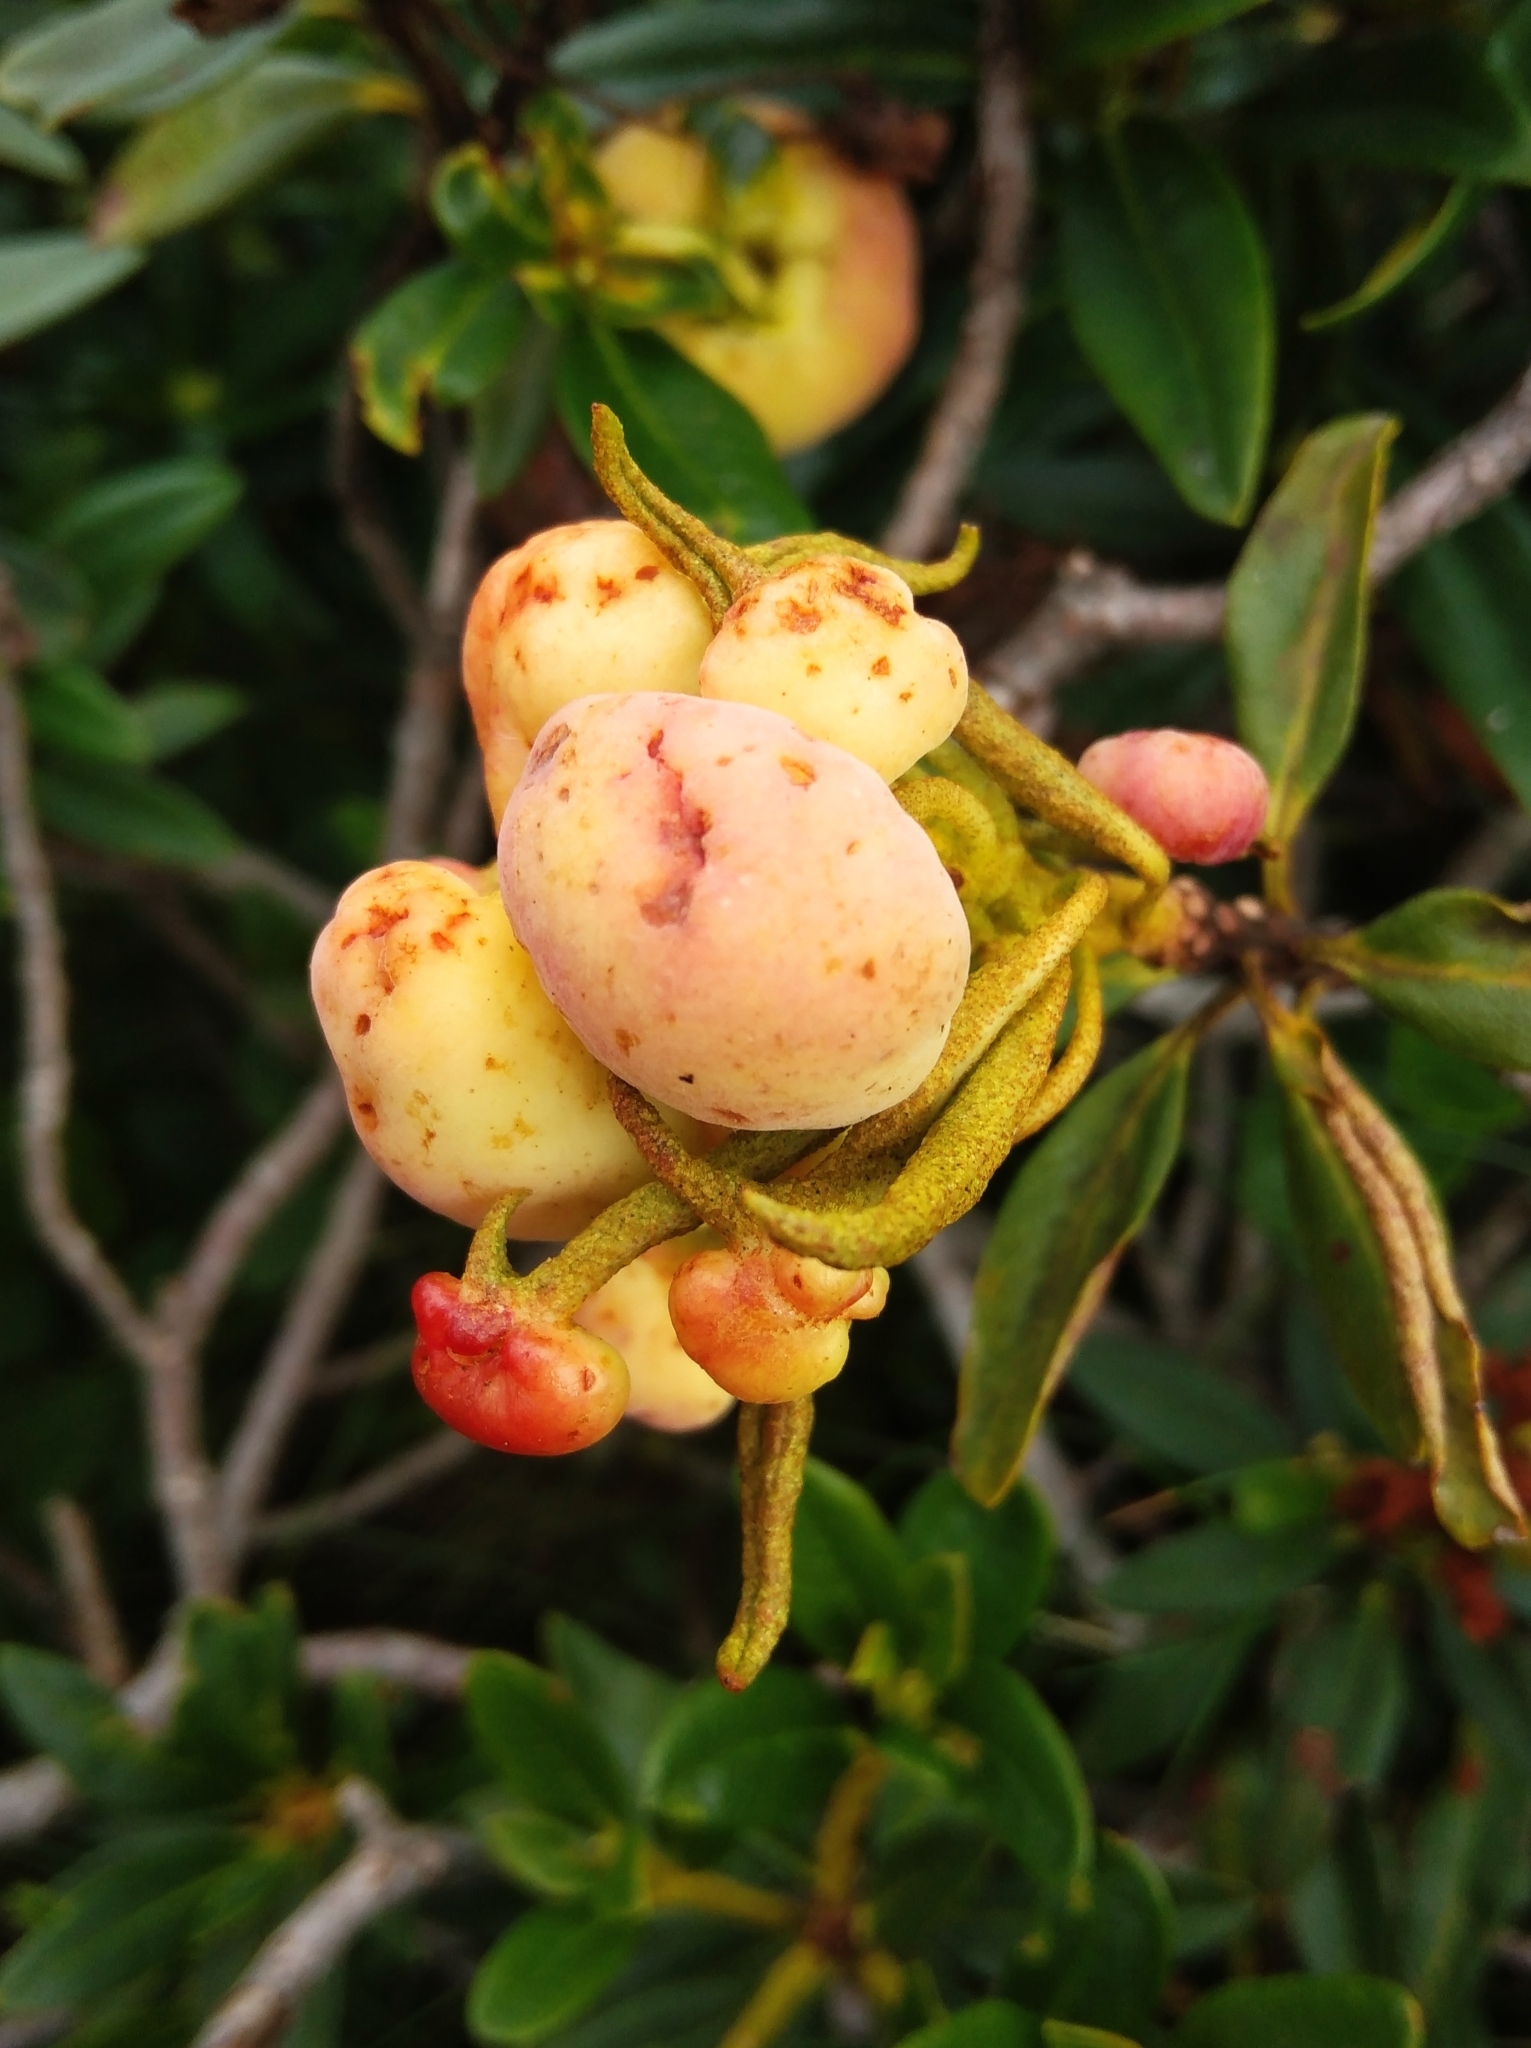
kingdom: Fungi
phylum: Basidiomycota
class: Exobasidiomycetes
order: Exobasidiales
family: Exobasidiaceae
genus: Exobasidium
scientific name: Exobasidium rhododendri
